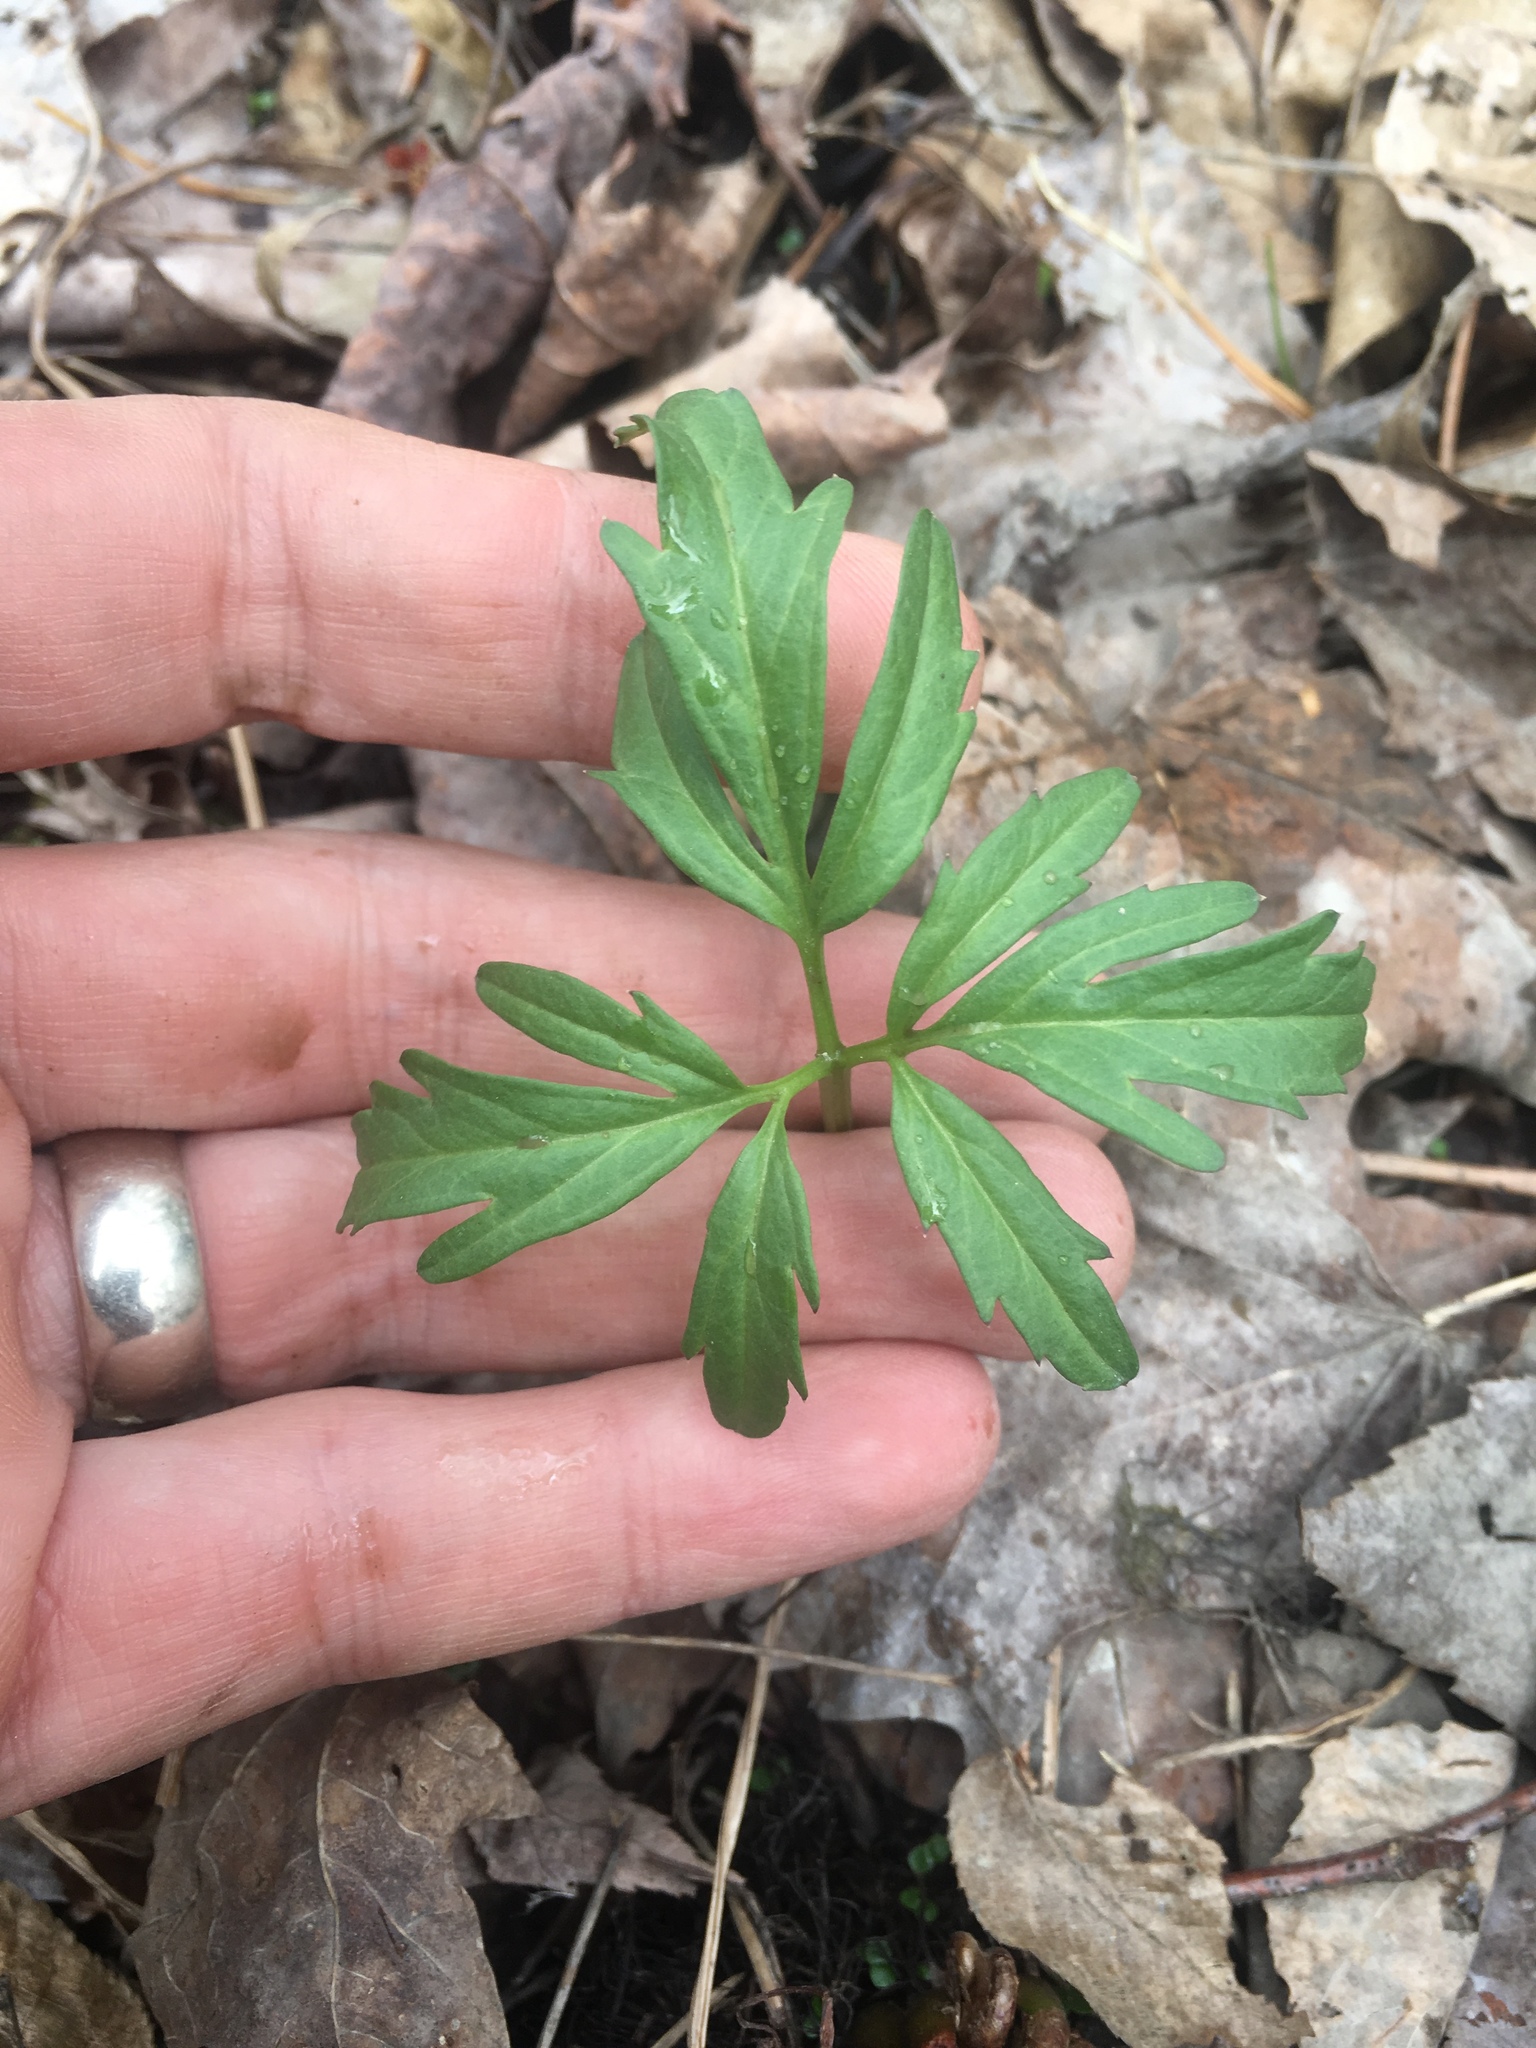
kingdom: Plantae
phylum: Tracheophyta
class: Magnoliopsida
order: Brassicales
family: Brassicaceae
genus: Cardamine
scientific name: Cardamine concatenata
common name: Cut-leaf toothcup
